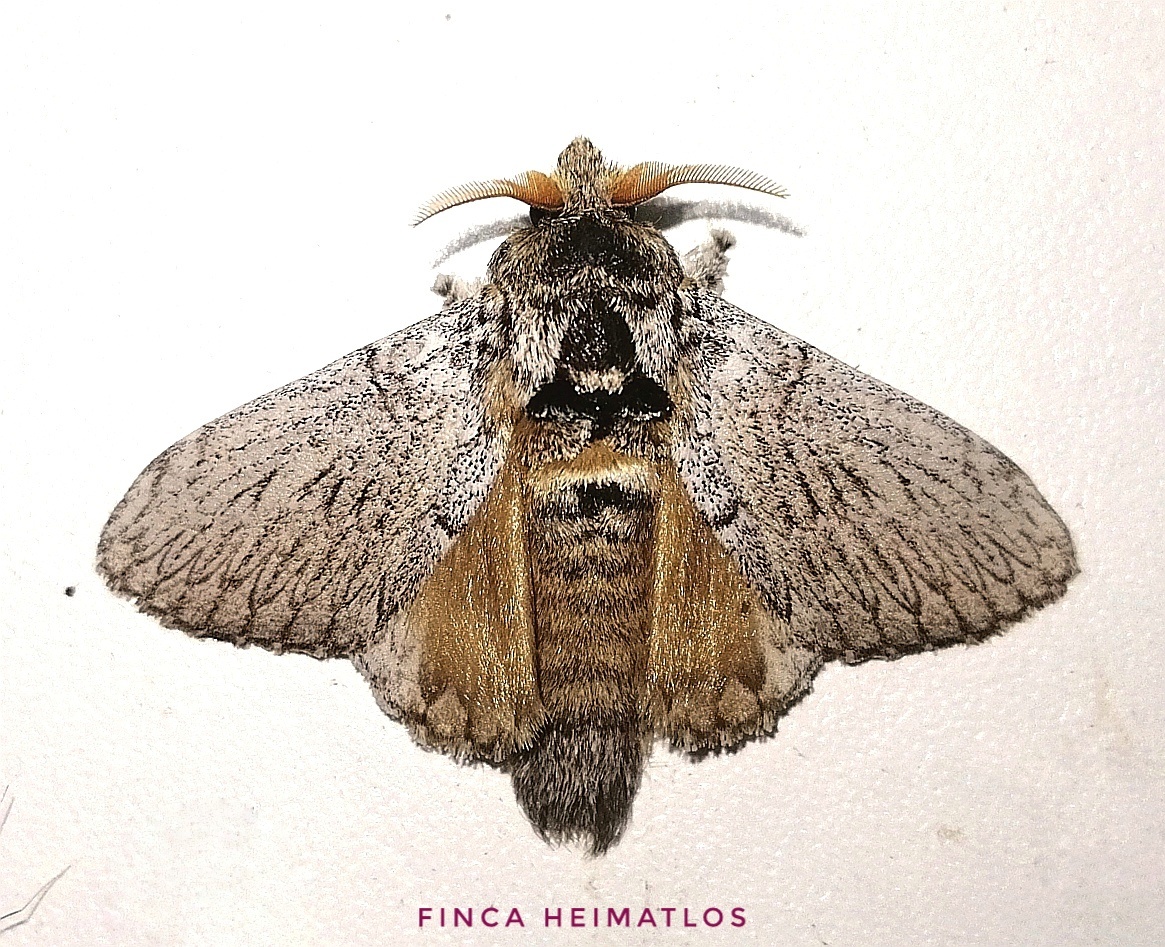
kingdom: Animalia
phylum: Arthropoda
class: Insecta
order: Lepidoptera
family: Lasiocampidae
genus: Euglyphis
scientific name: Euglyphis phidonia
